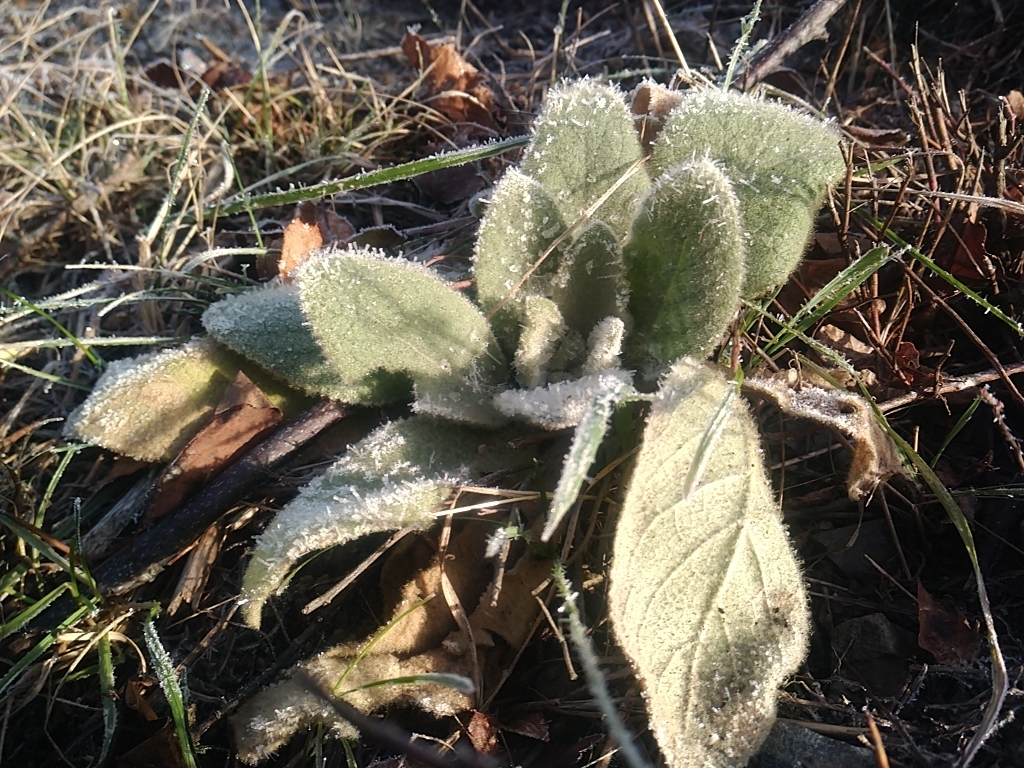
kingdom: Plantae
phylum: Tracheophyta
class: Magnoliopsida
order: Lamiales
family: Scrophulariaceae
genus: Verbascum
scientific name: Verbascum thapsus
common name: Common mullein
